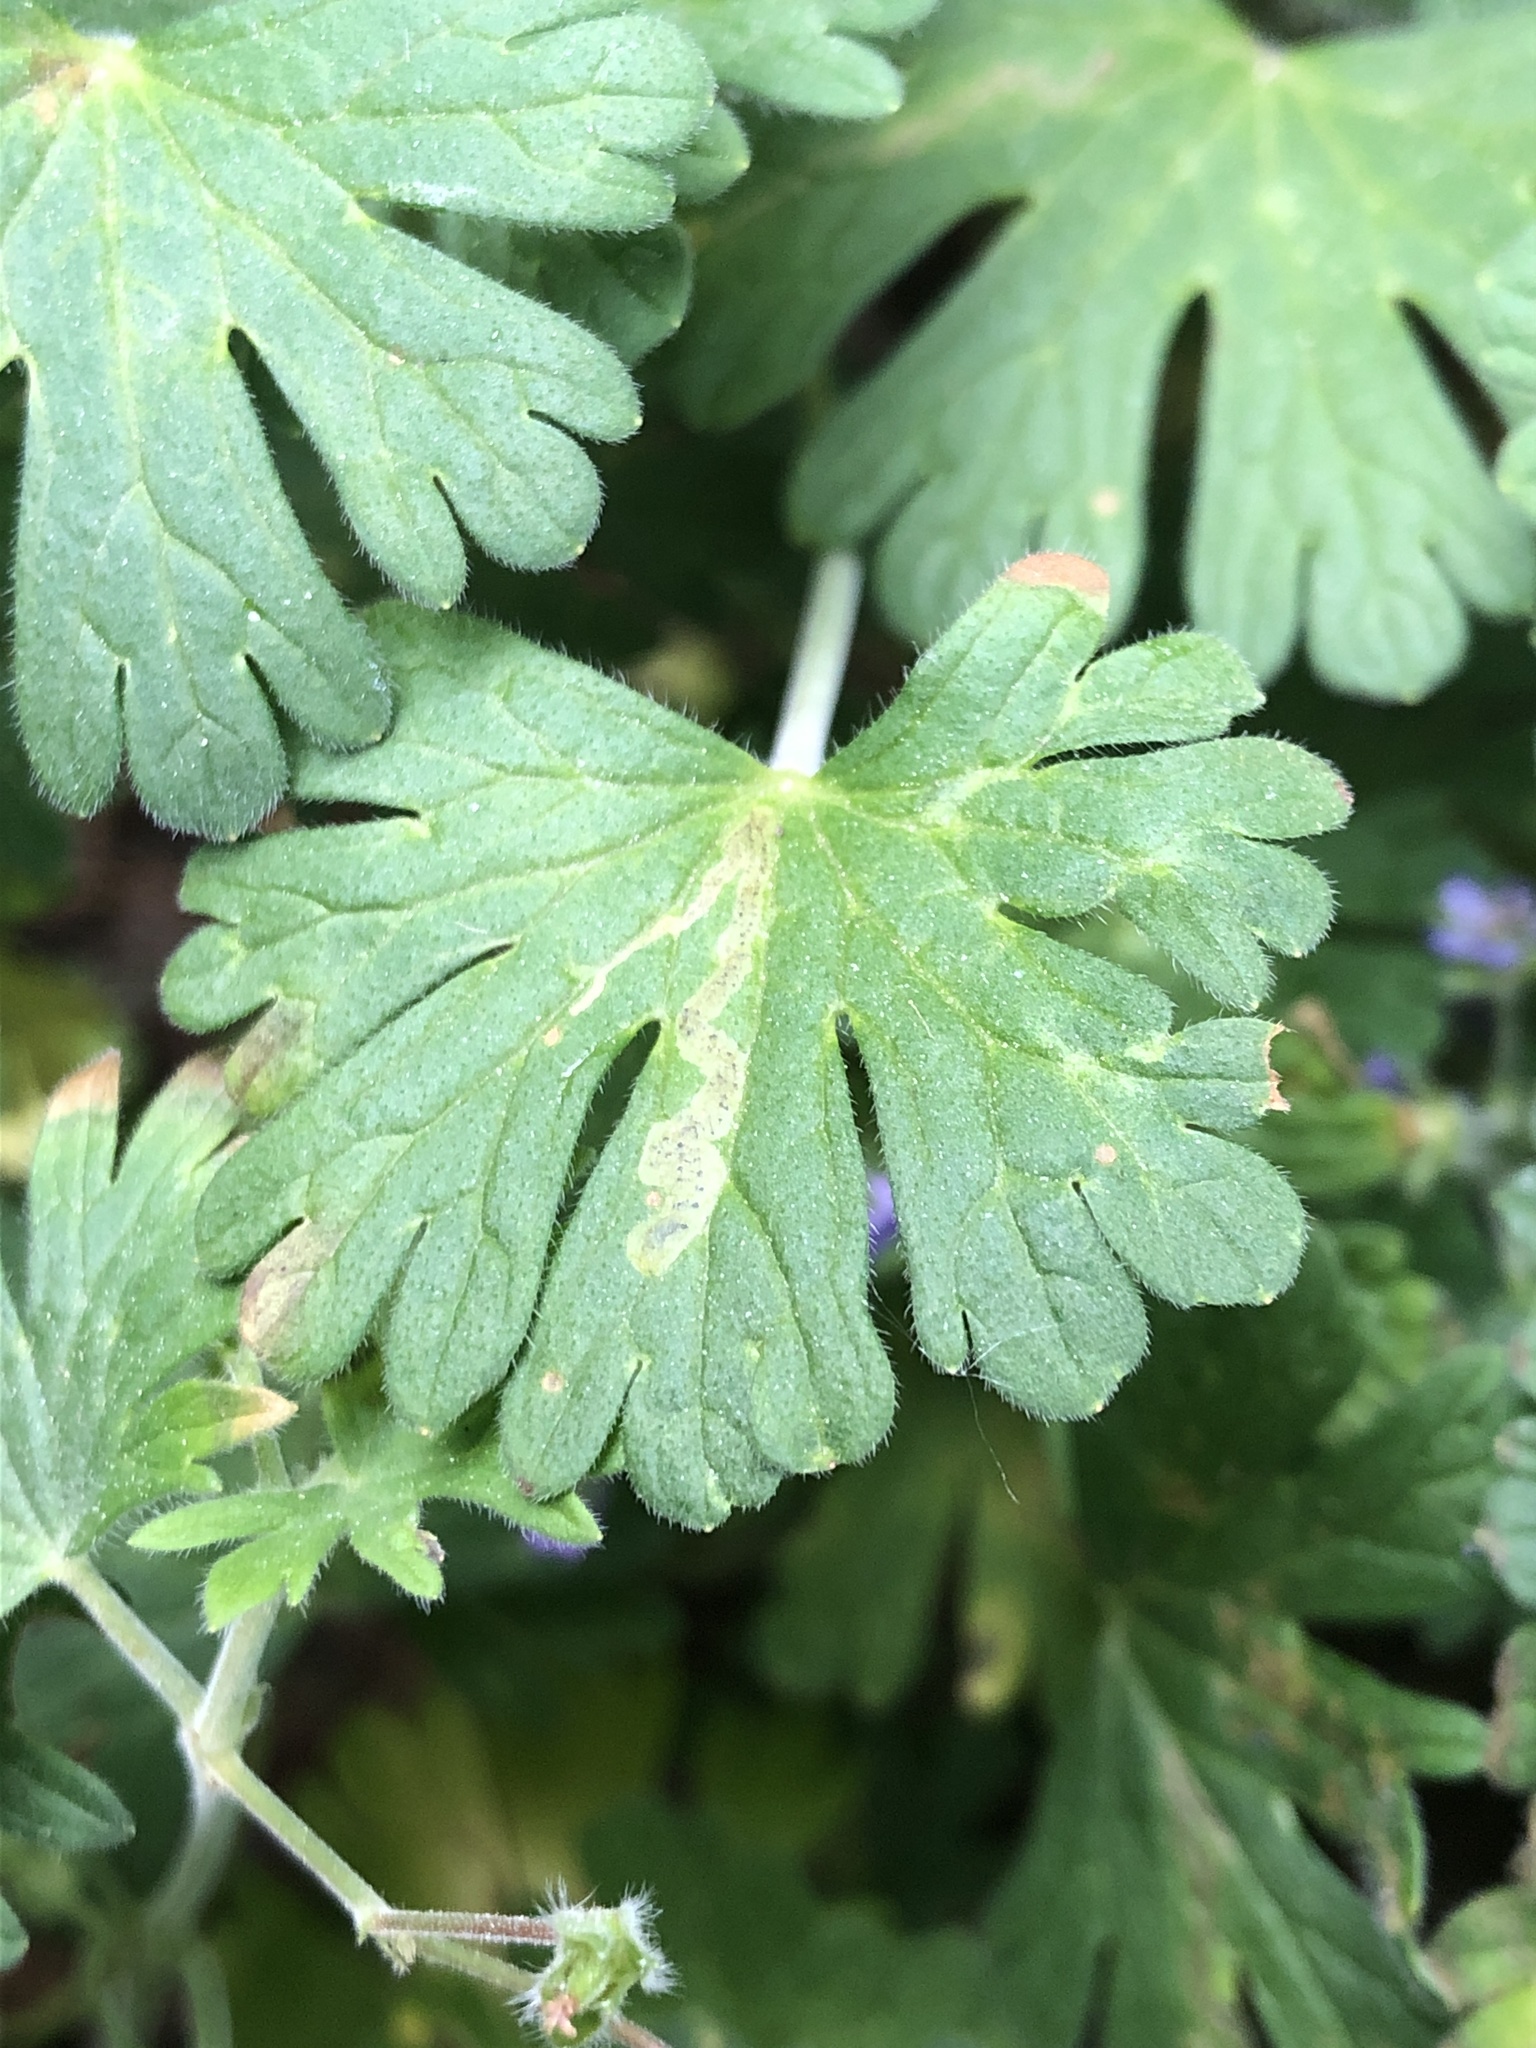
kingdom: Animalia
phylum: Arthropoda
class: Insecta
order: Diptera
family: Agromyzidae
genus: Agromyza
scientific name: Agromyza nigrescens
